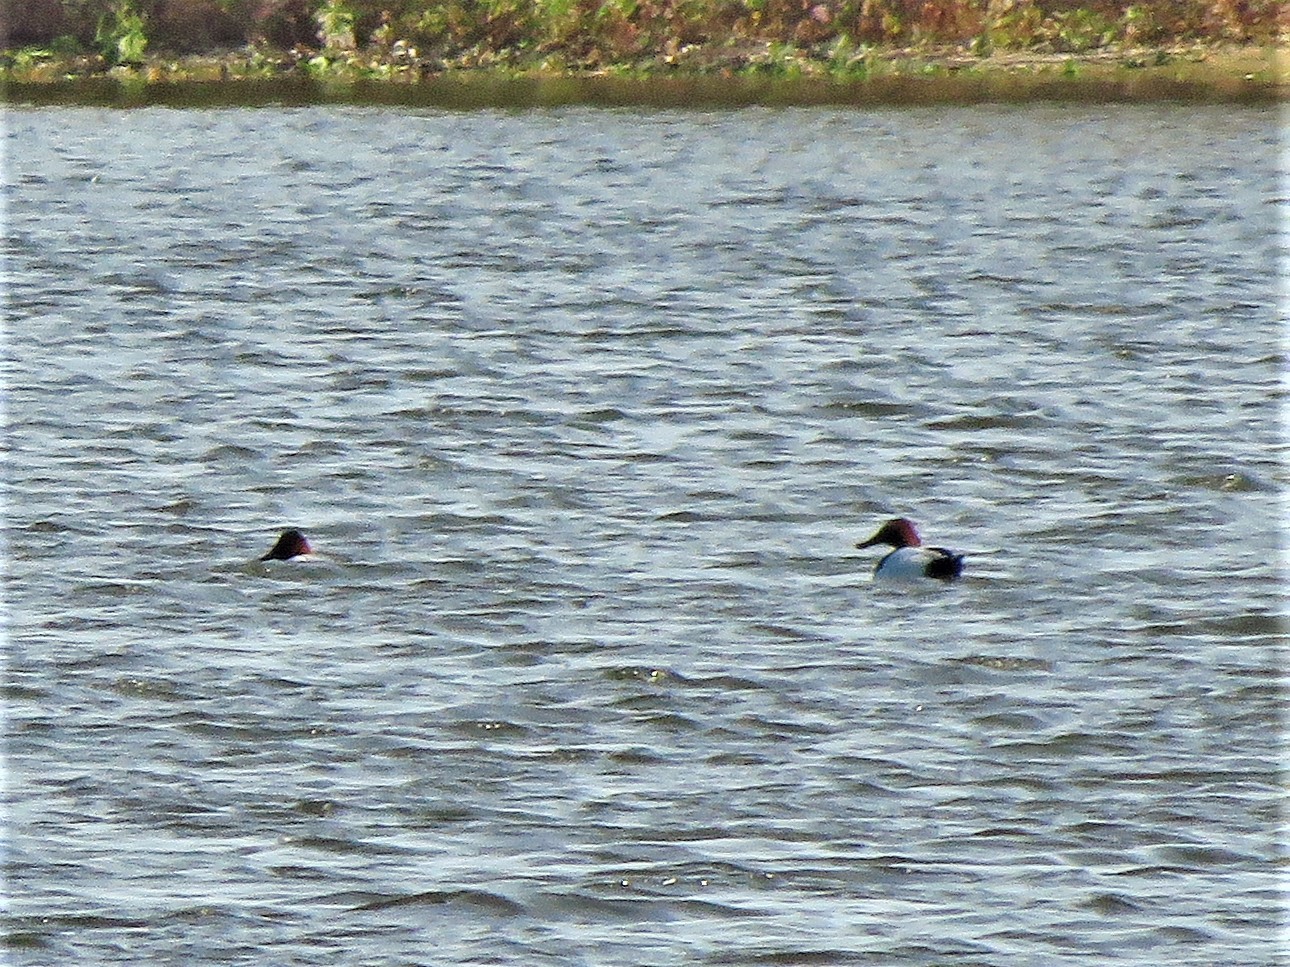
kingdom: Animalia
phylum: Chordata
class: Aves
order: Anseriformes
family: Anatidae
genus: Aythya
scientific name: Aythya valisineria
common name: Canvasback
